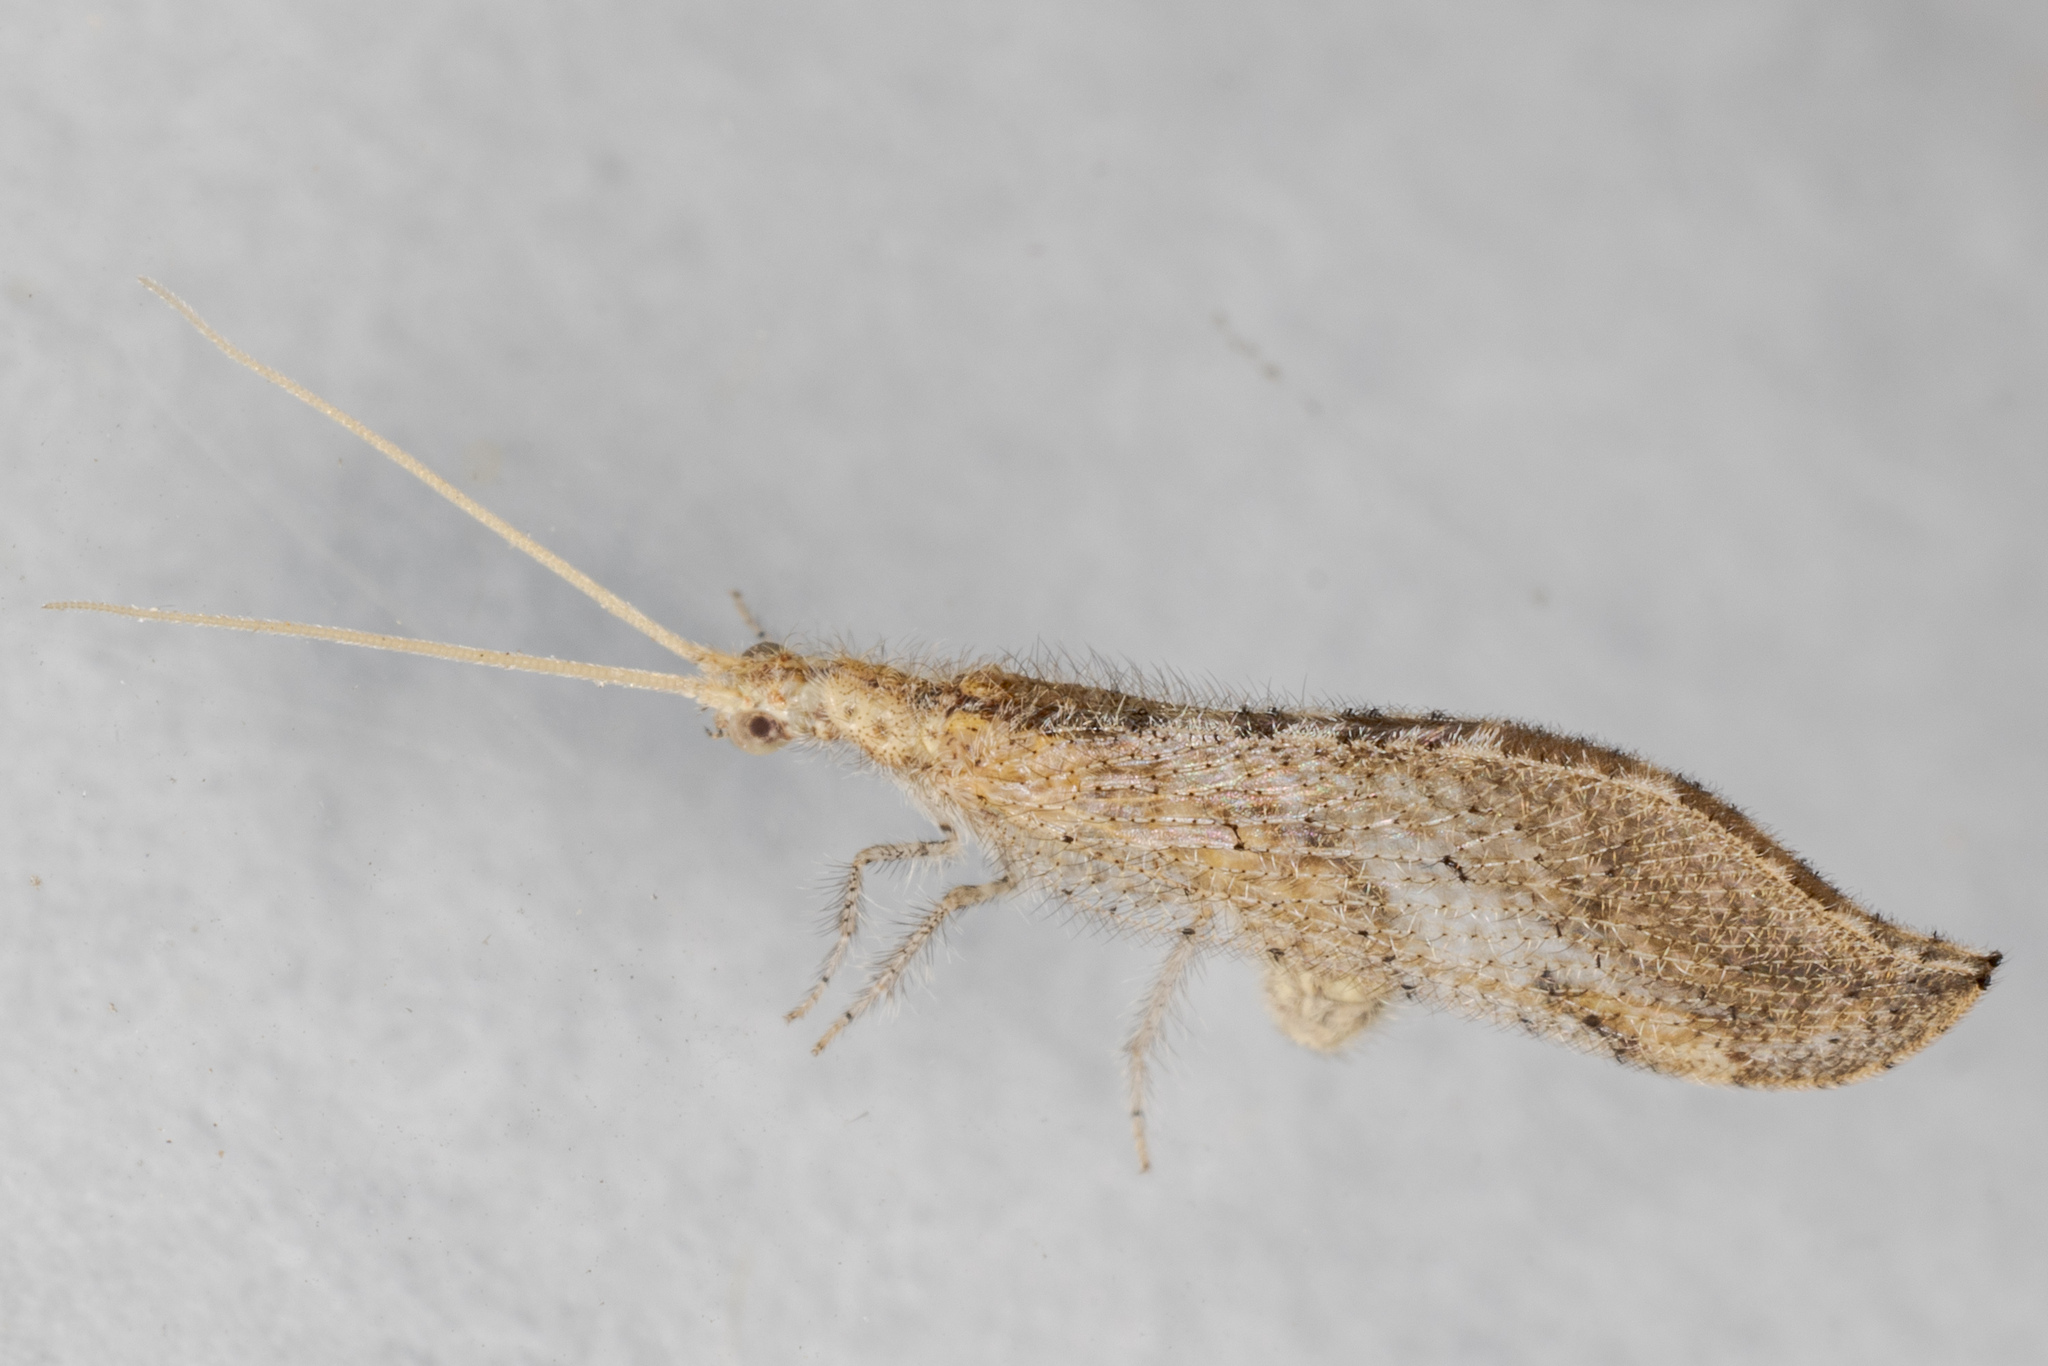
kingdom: Animalia
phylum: Arthropoda
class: Insecta
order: Neuroptera
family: Berothidae
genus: Lomamyia
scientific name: Lomamyia squamosa
